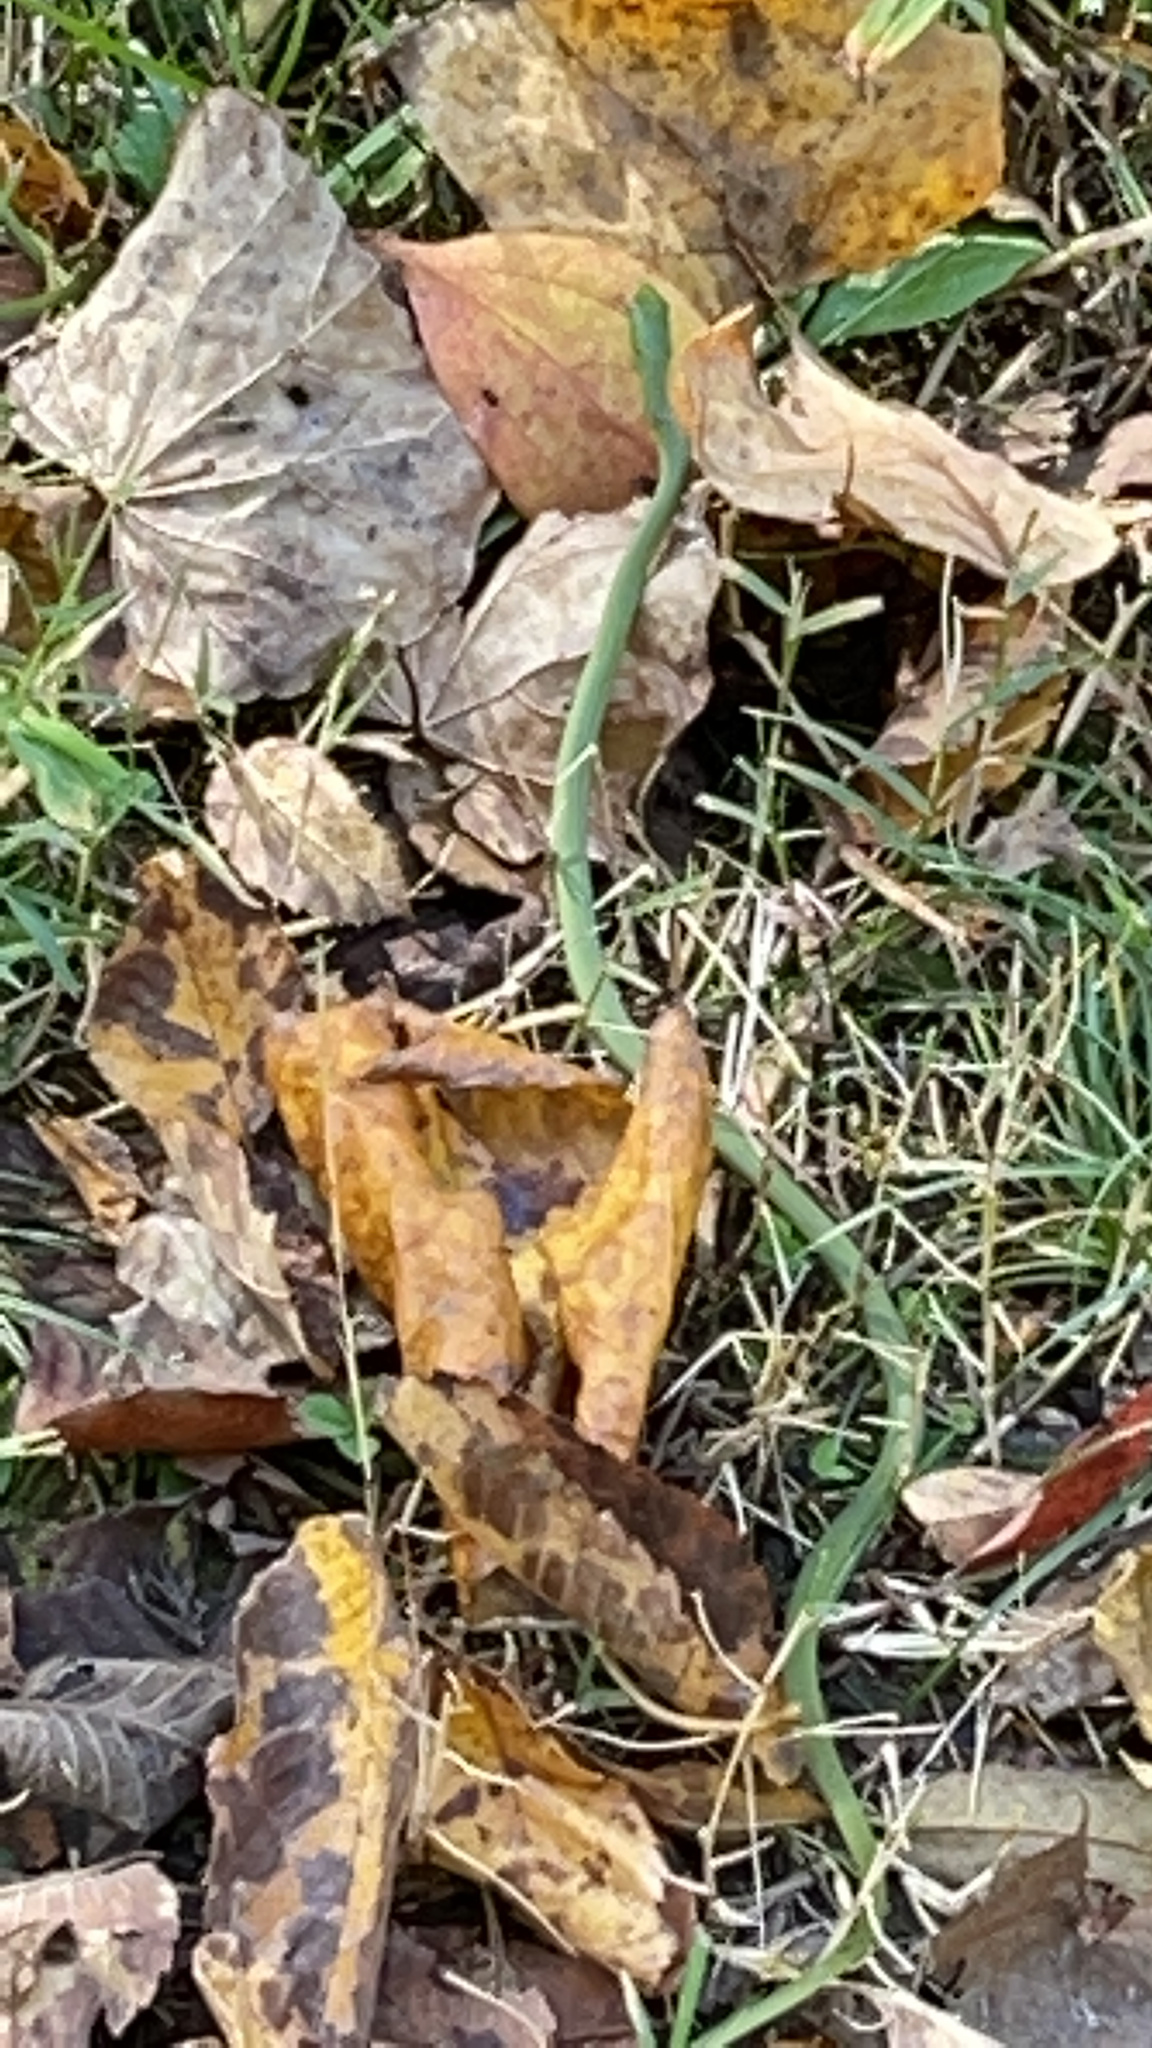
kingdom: Animalia
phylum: Chordata
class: Squamata
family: Colubridae
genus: Opheodrys
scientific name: Opheodrys aestivus
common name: Rough greensnake
